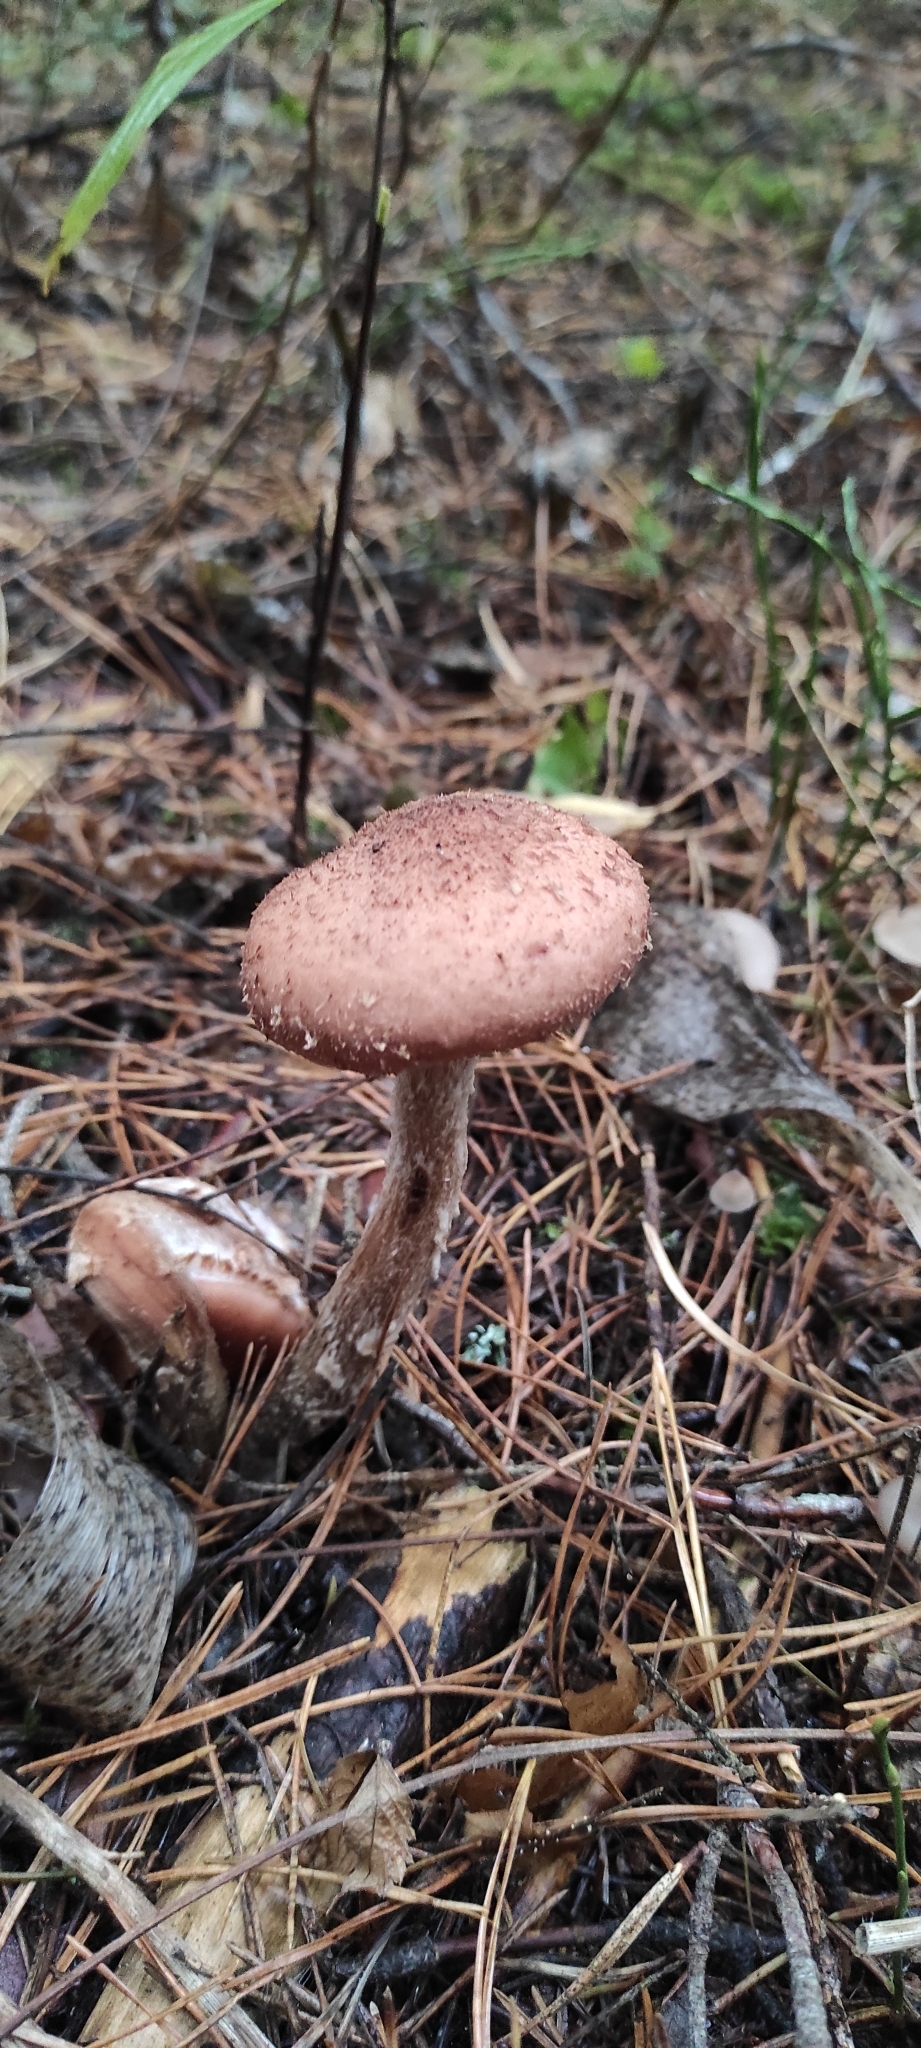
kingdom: Fungi
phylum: Basidiomycota
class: Agaricomycetes
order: Agaricales
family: Physalacriaceae
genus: Armillaria
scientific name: Armillaria ostoyae
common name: Dark honey fungus
